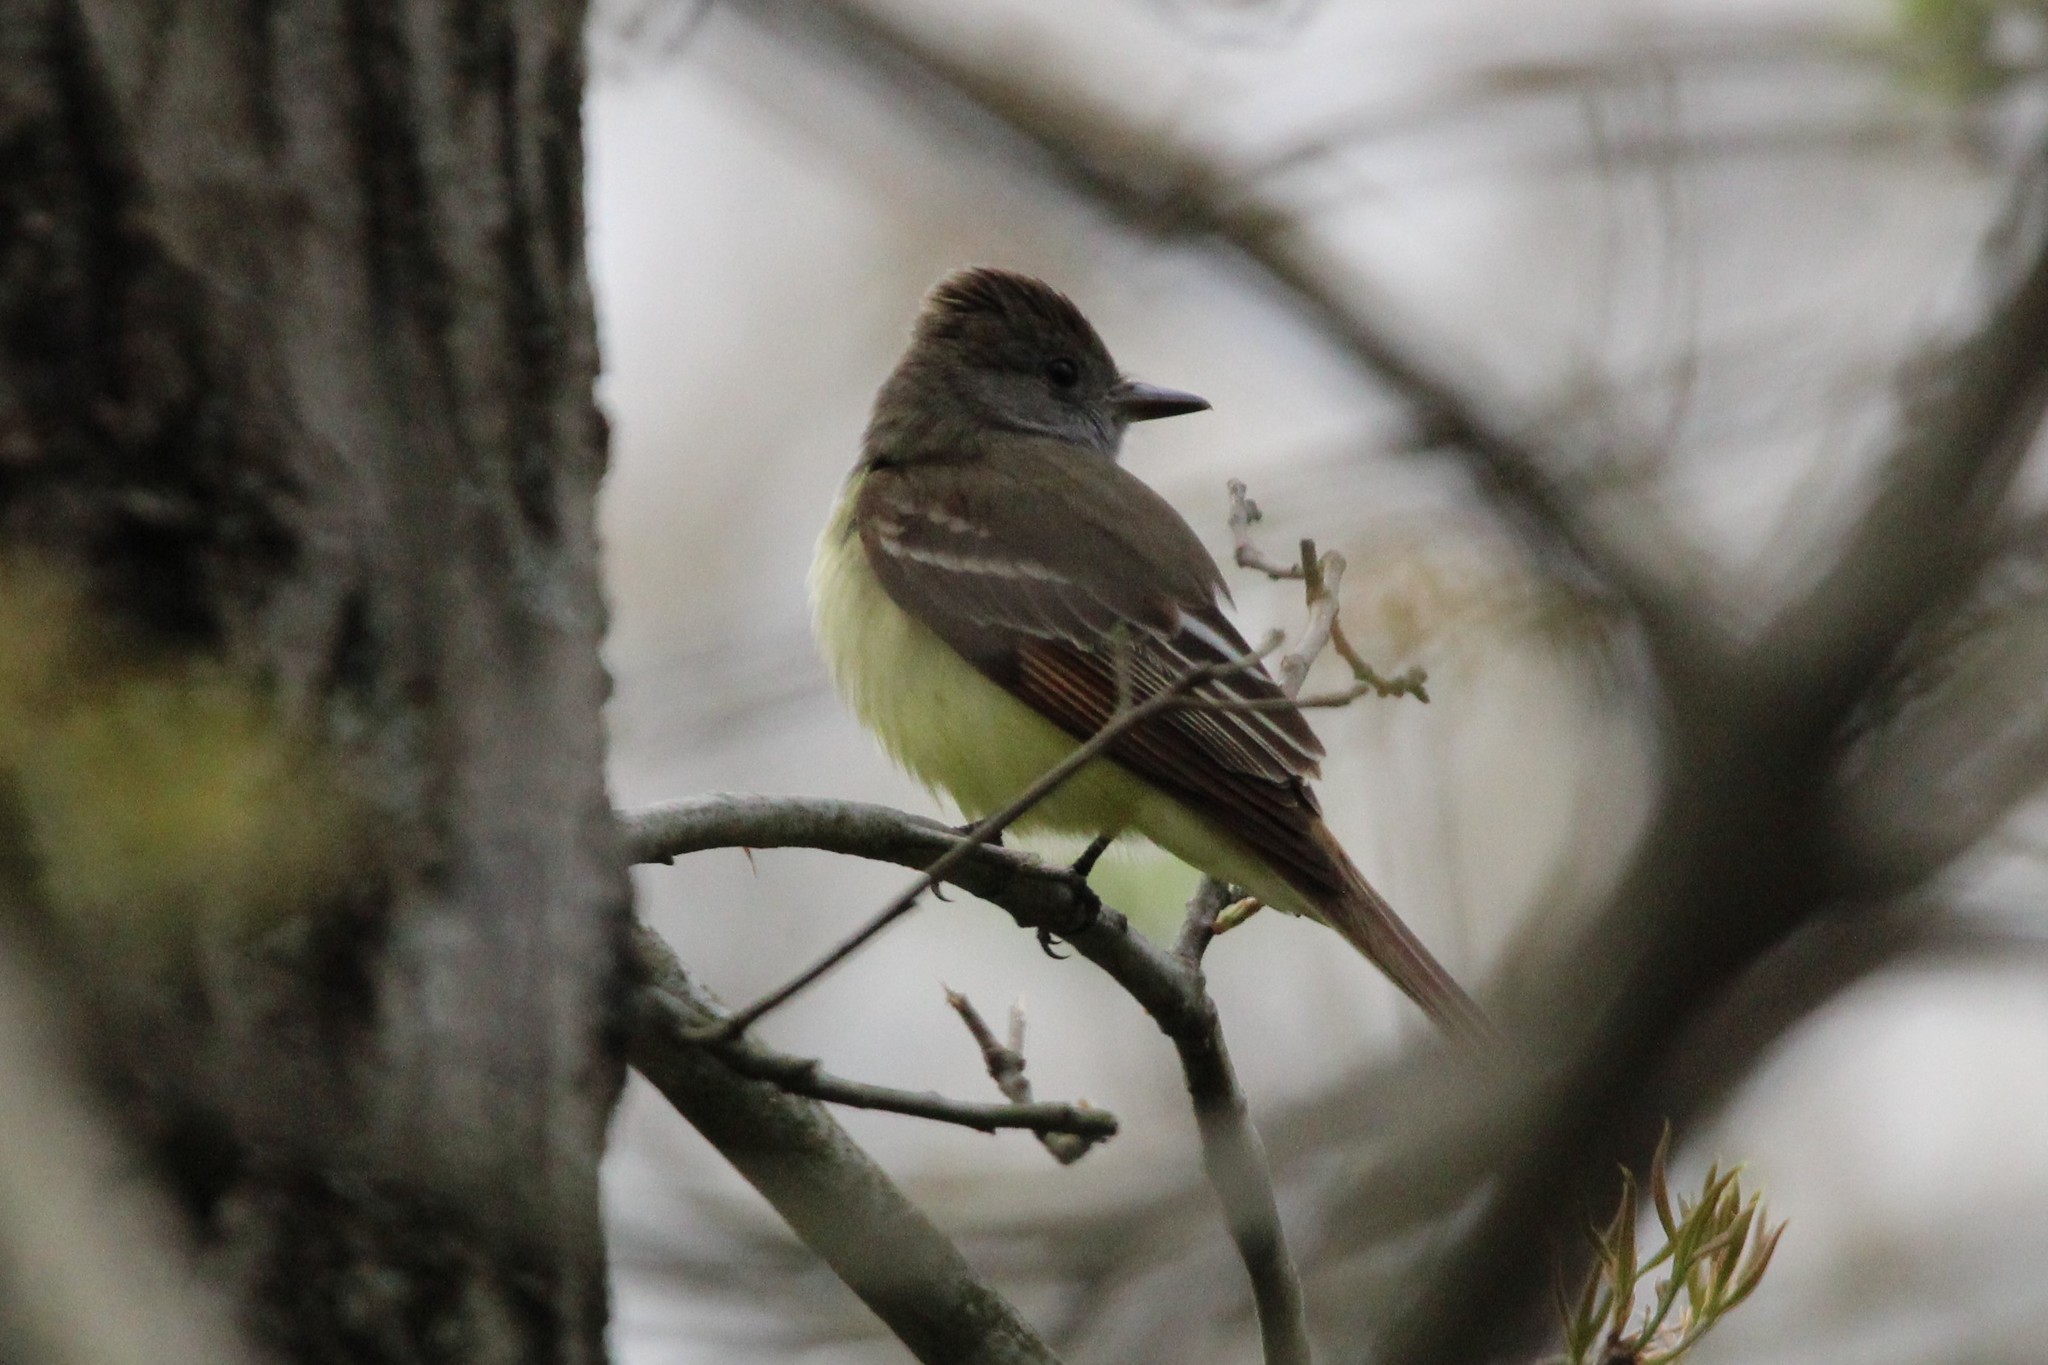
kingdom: Animalia
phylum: Chordata
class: Aves
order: Passeriformes
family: Tyrannidae
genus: Myiarchus
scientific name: Myiarchus crinitus
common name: Great crested flycatcher
